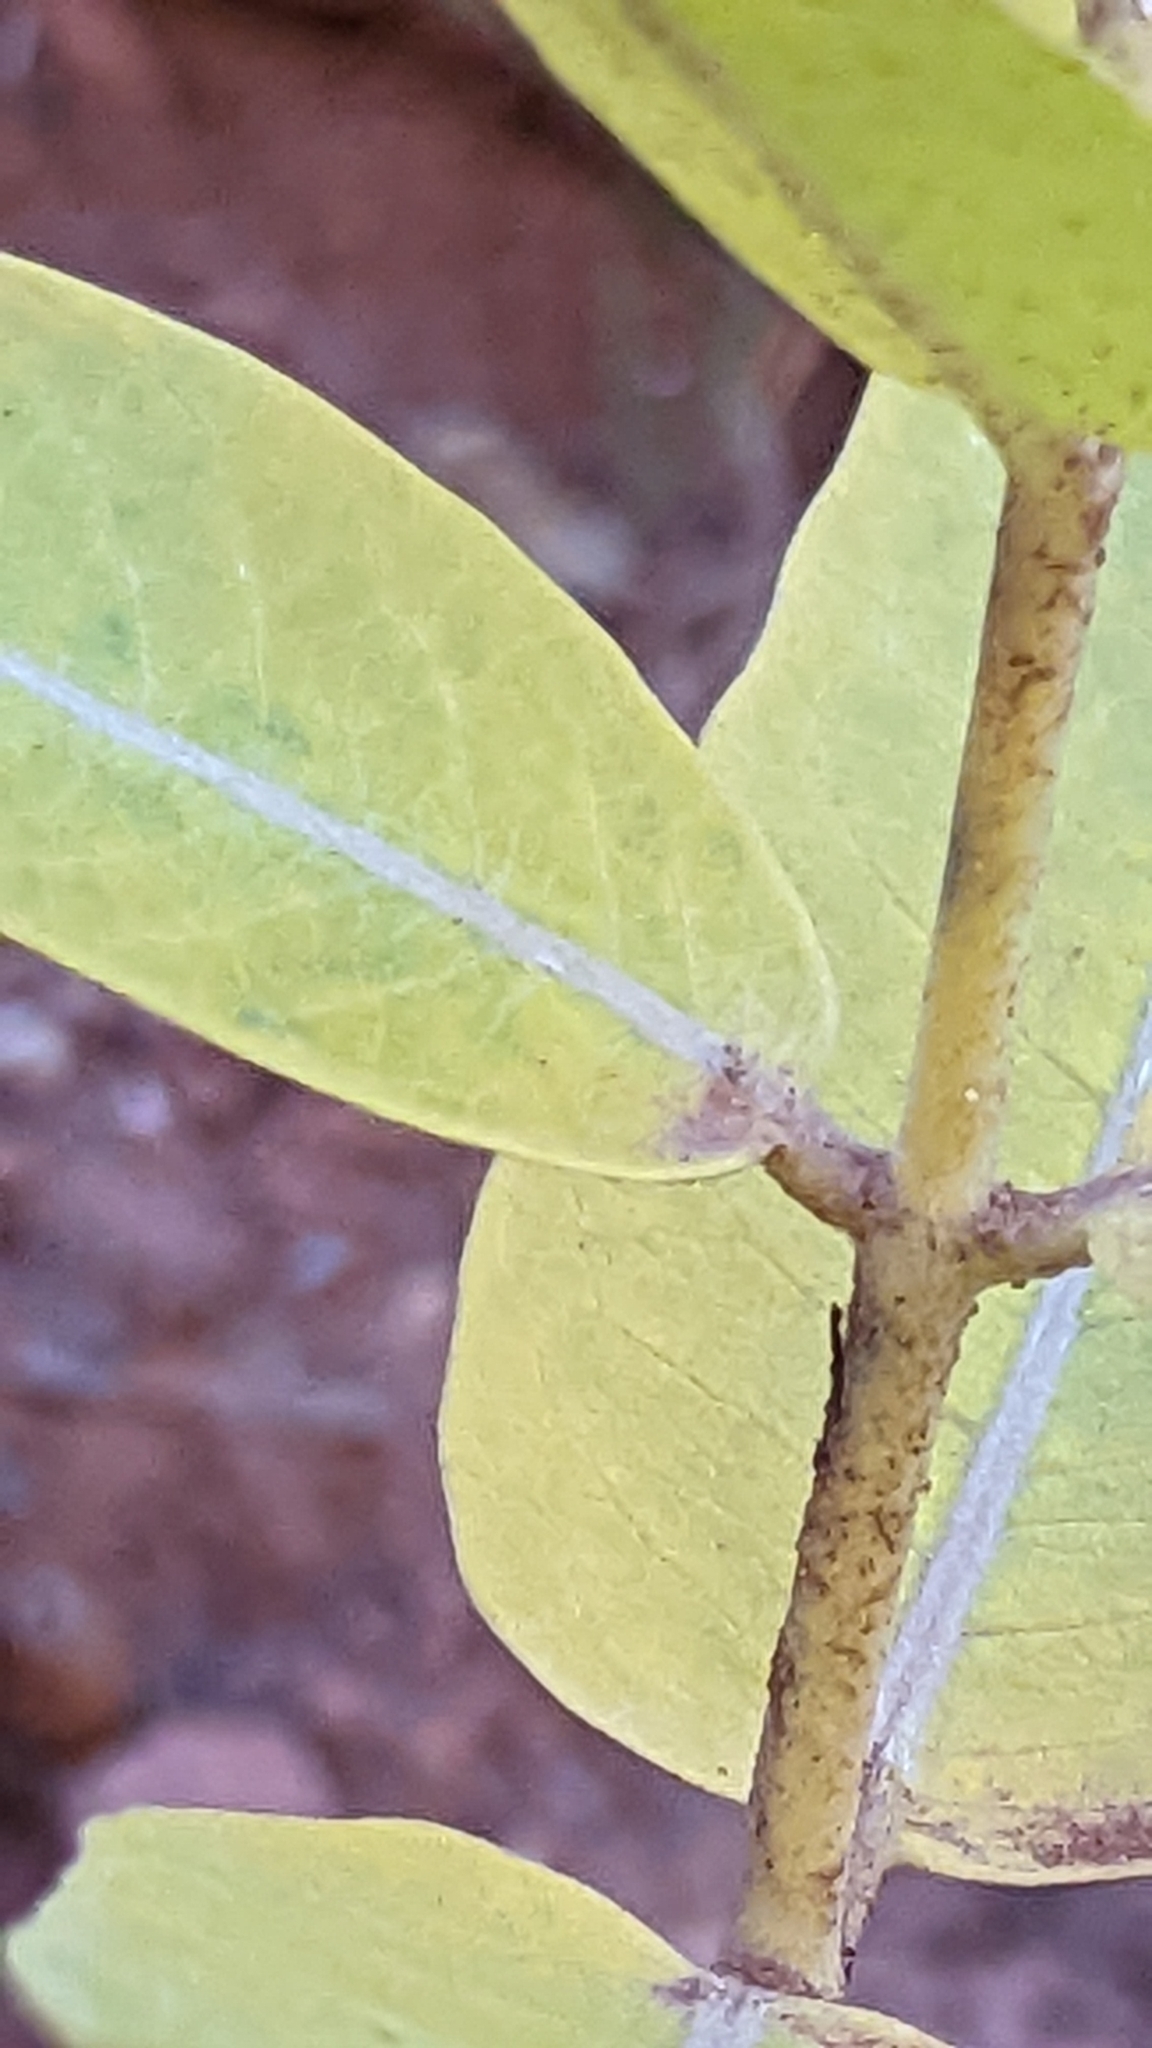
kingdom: Plantae
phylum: Tracheophyta
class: Magnoliopsida
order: Gentianales
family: Apocynaceae
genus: Asclepias
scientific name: Asclepias speciosa
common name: Showy milkweed
